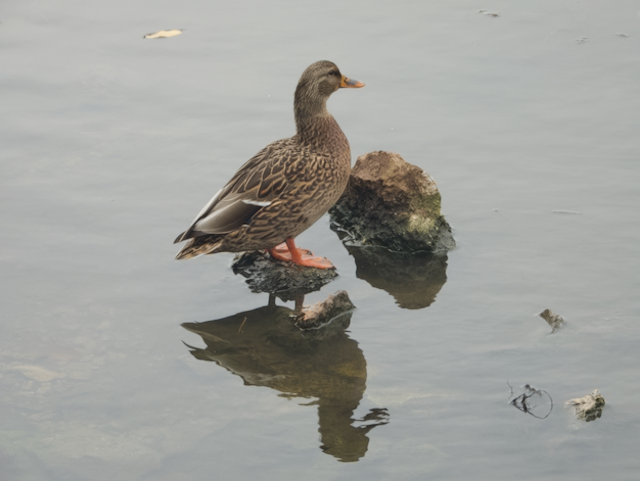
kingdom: Animalia
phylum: Chordata
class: Aves
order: Anseriformes
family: Anatidae
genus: Anas
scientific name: Anas platyrhynchos
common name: Mallard
